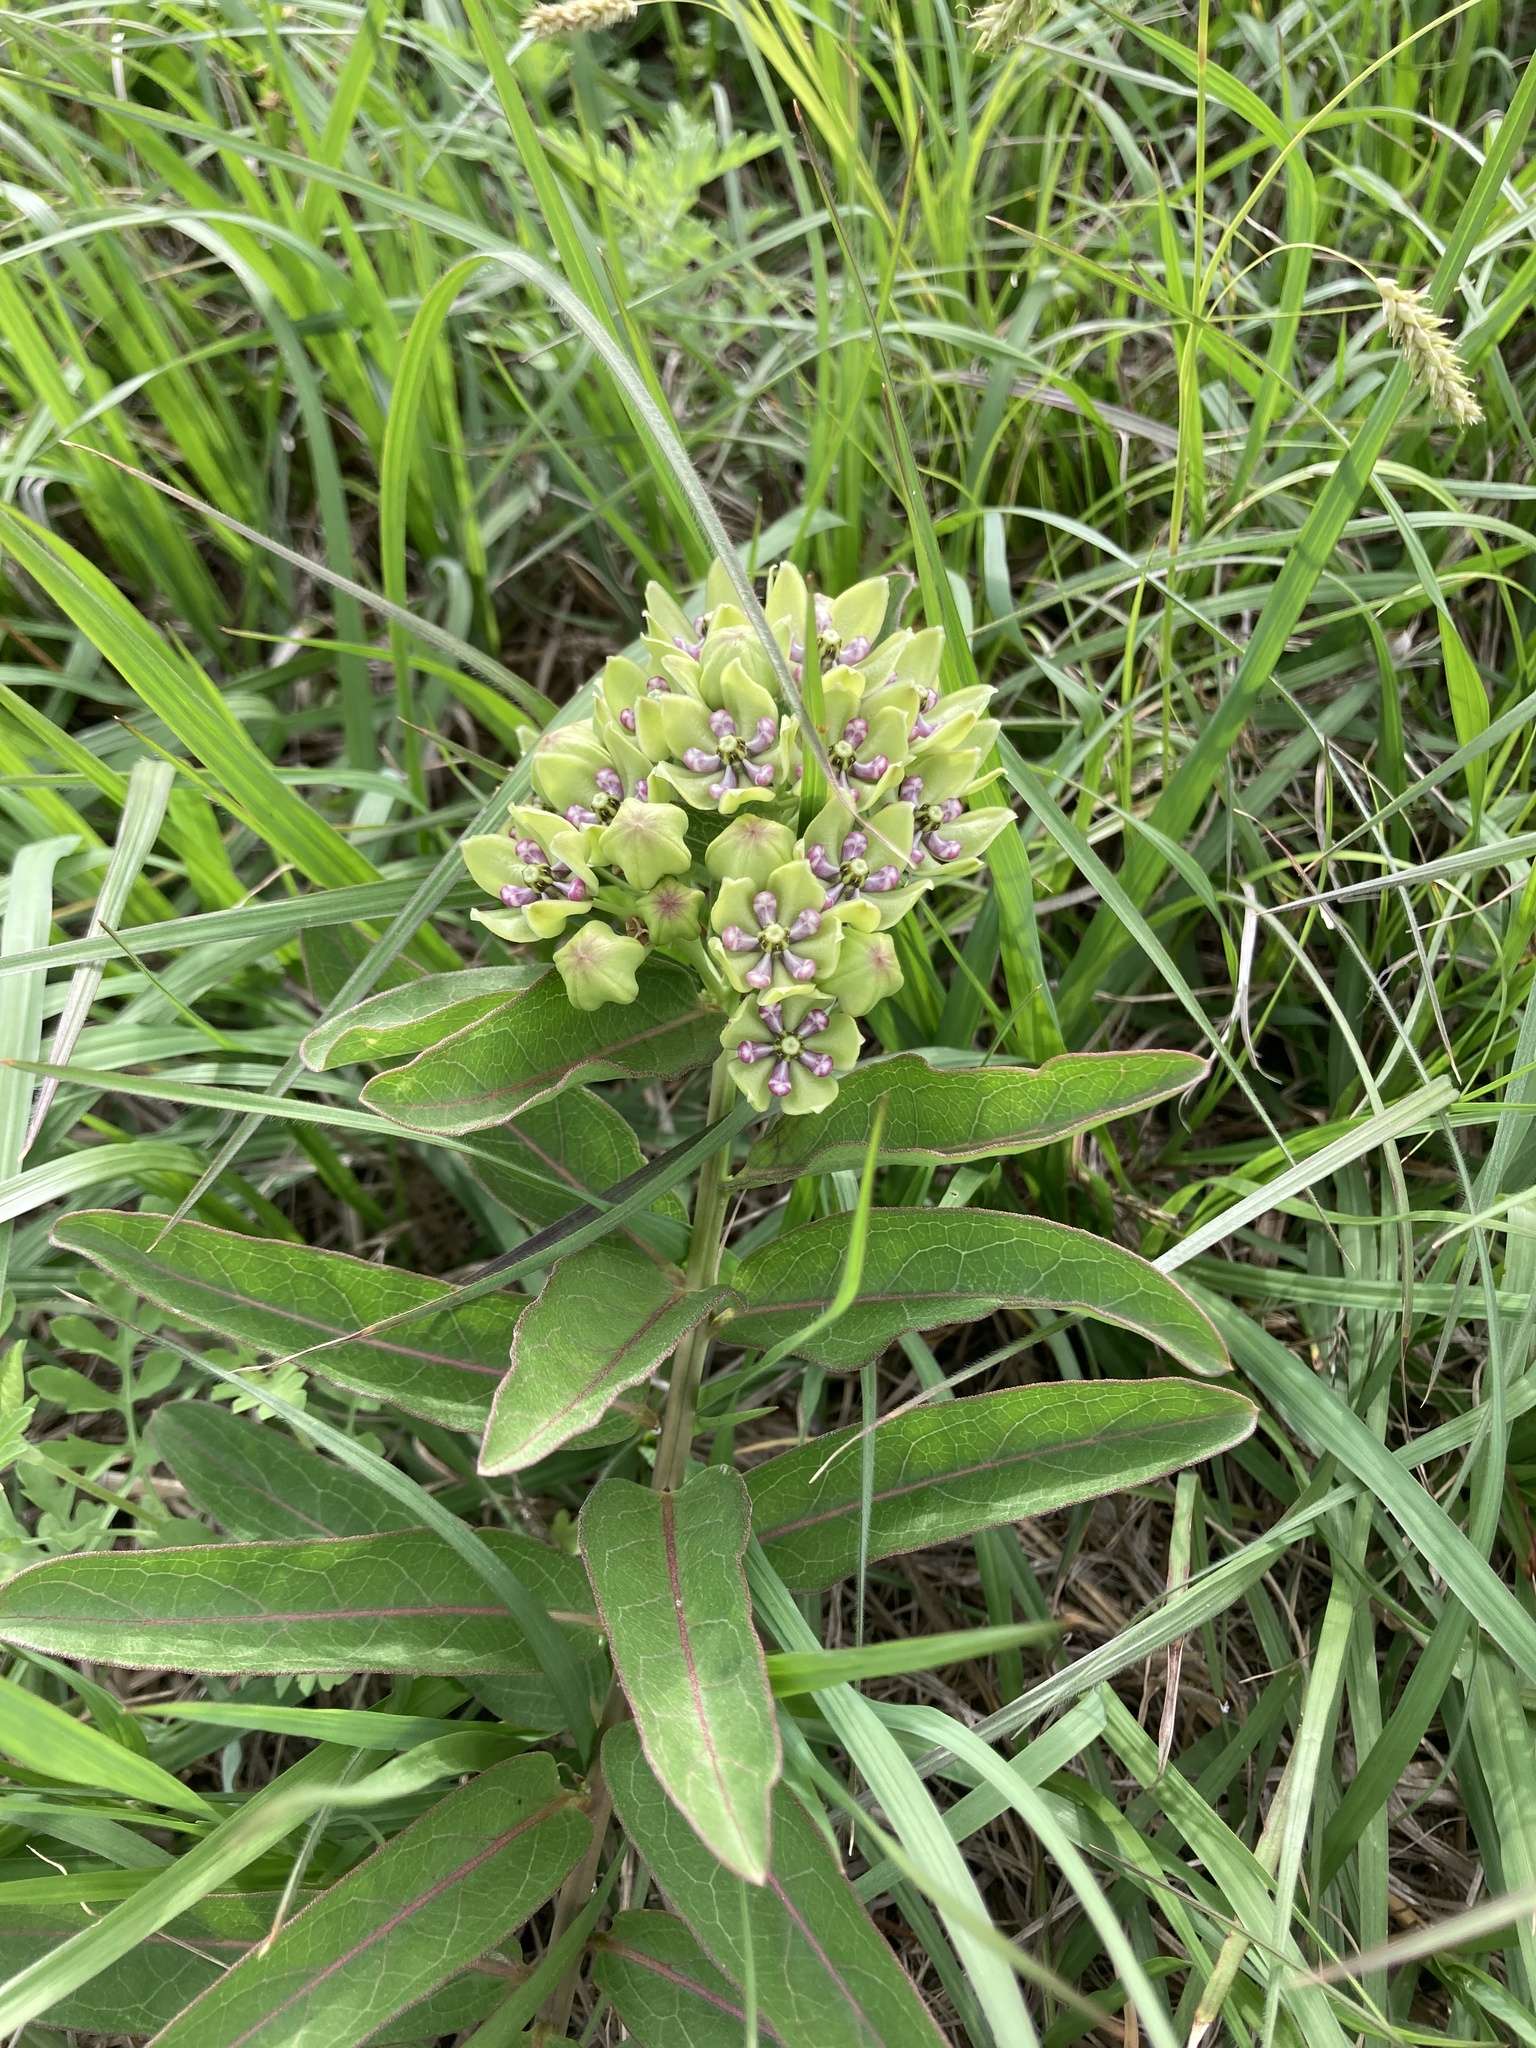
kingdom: Plantae
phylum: Tracheophyta
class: Magnoliopsida
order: Gentianales
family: Apocynaceae
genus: Asclepias
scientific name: Asclepias viridis
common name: Antelope-horns
